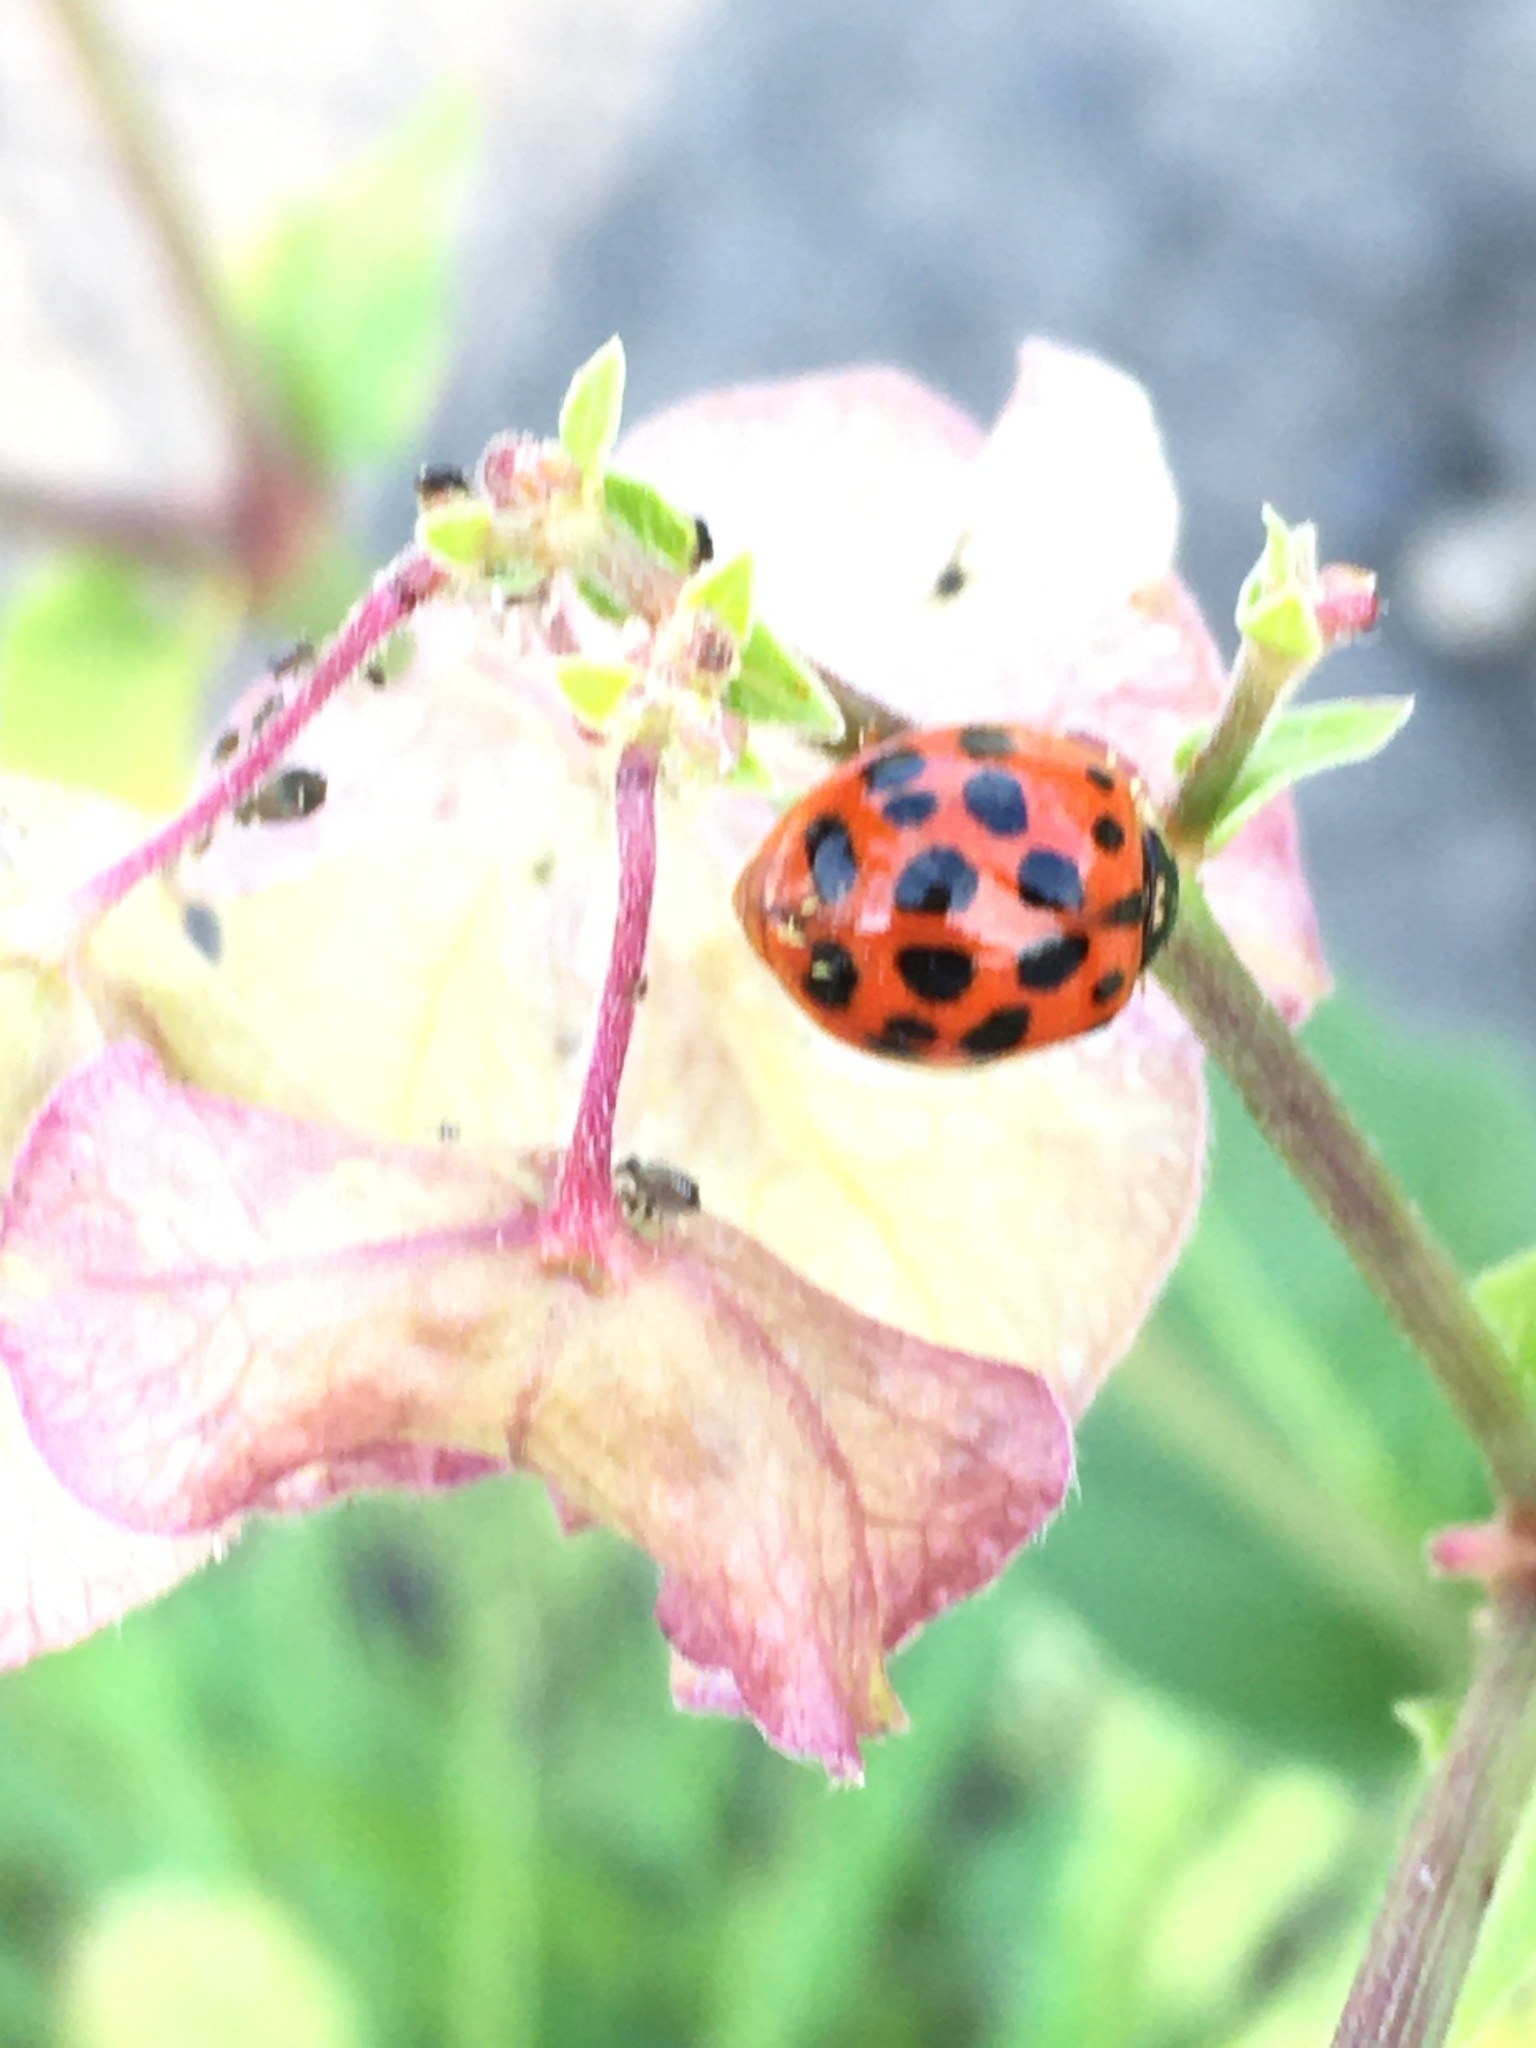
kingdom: Animalia
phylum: Arthropoda
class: Insecta
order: Coleoptera
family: Coccinellidae
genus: Harmonia
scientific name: Harmonia axyridis
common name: Harlequin ladybird
